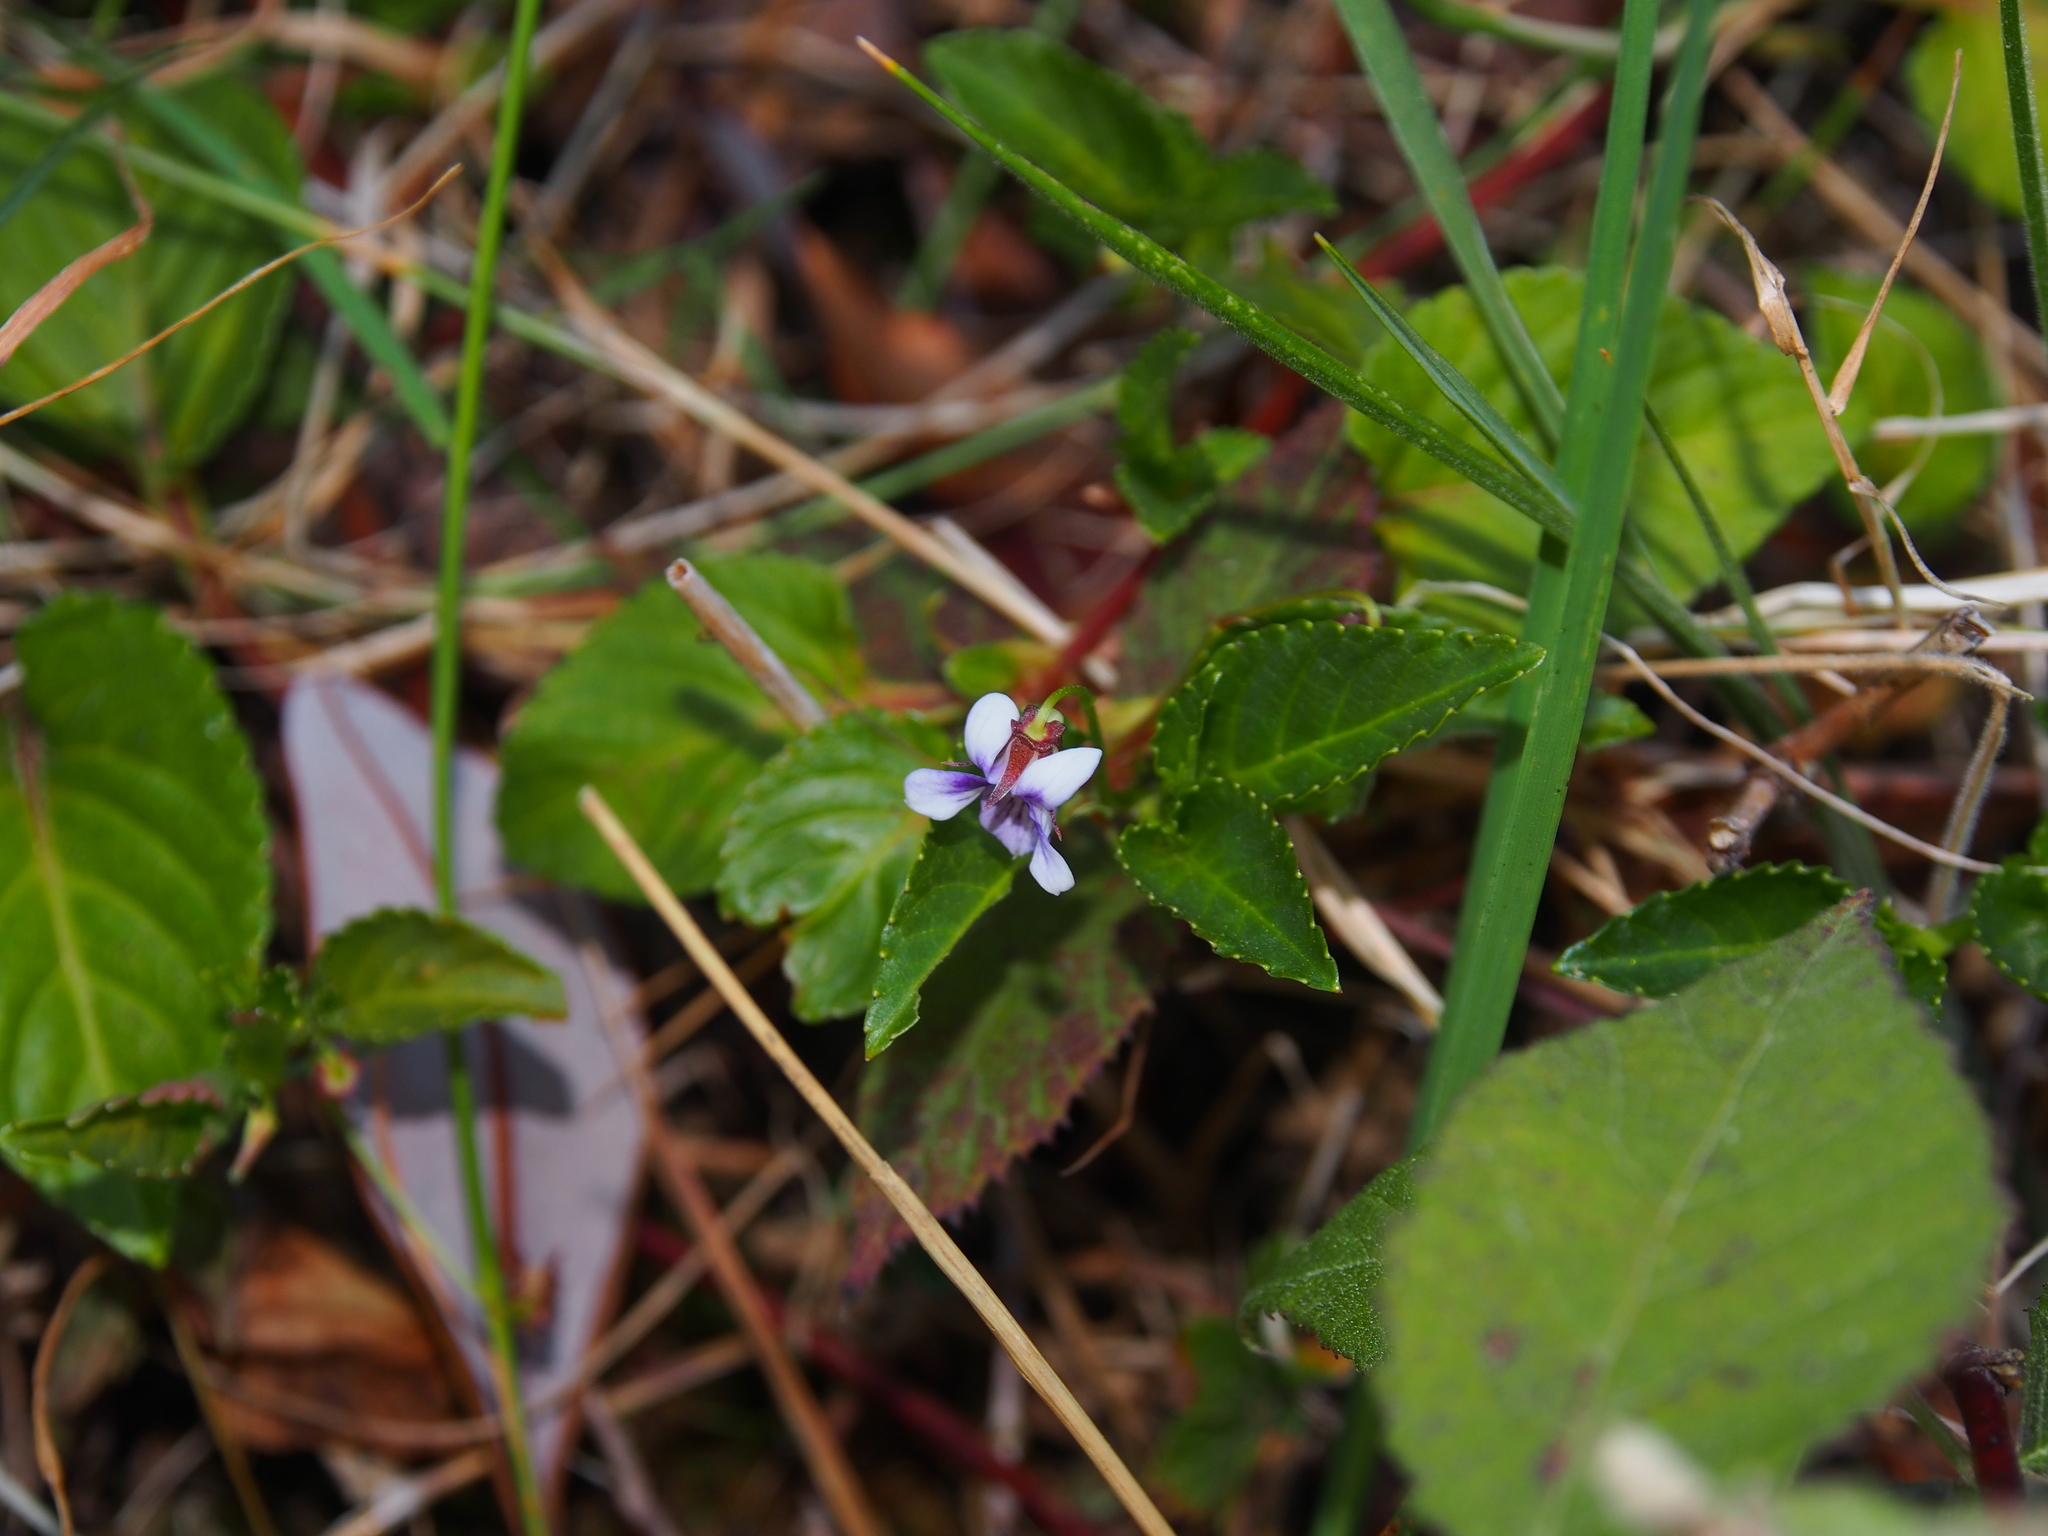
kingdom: Plantae
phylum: Tracheophyta
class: Magnoliopsida
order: Malpighiales
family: Violaceae
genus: Viola
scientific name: Viola scandens
